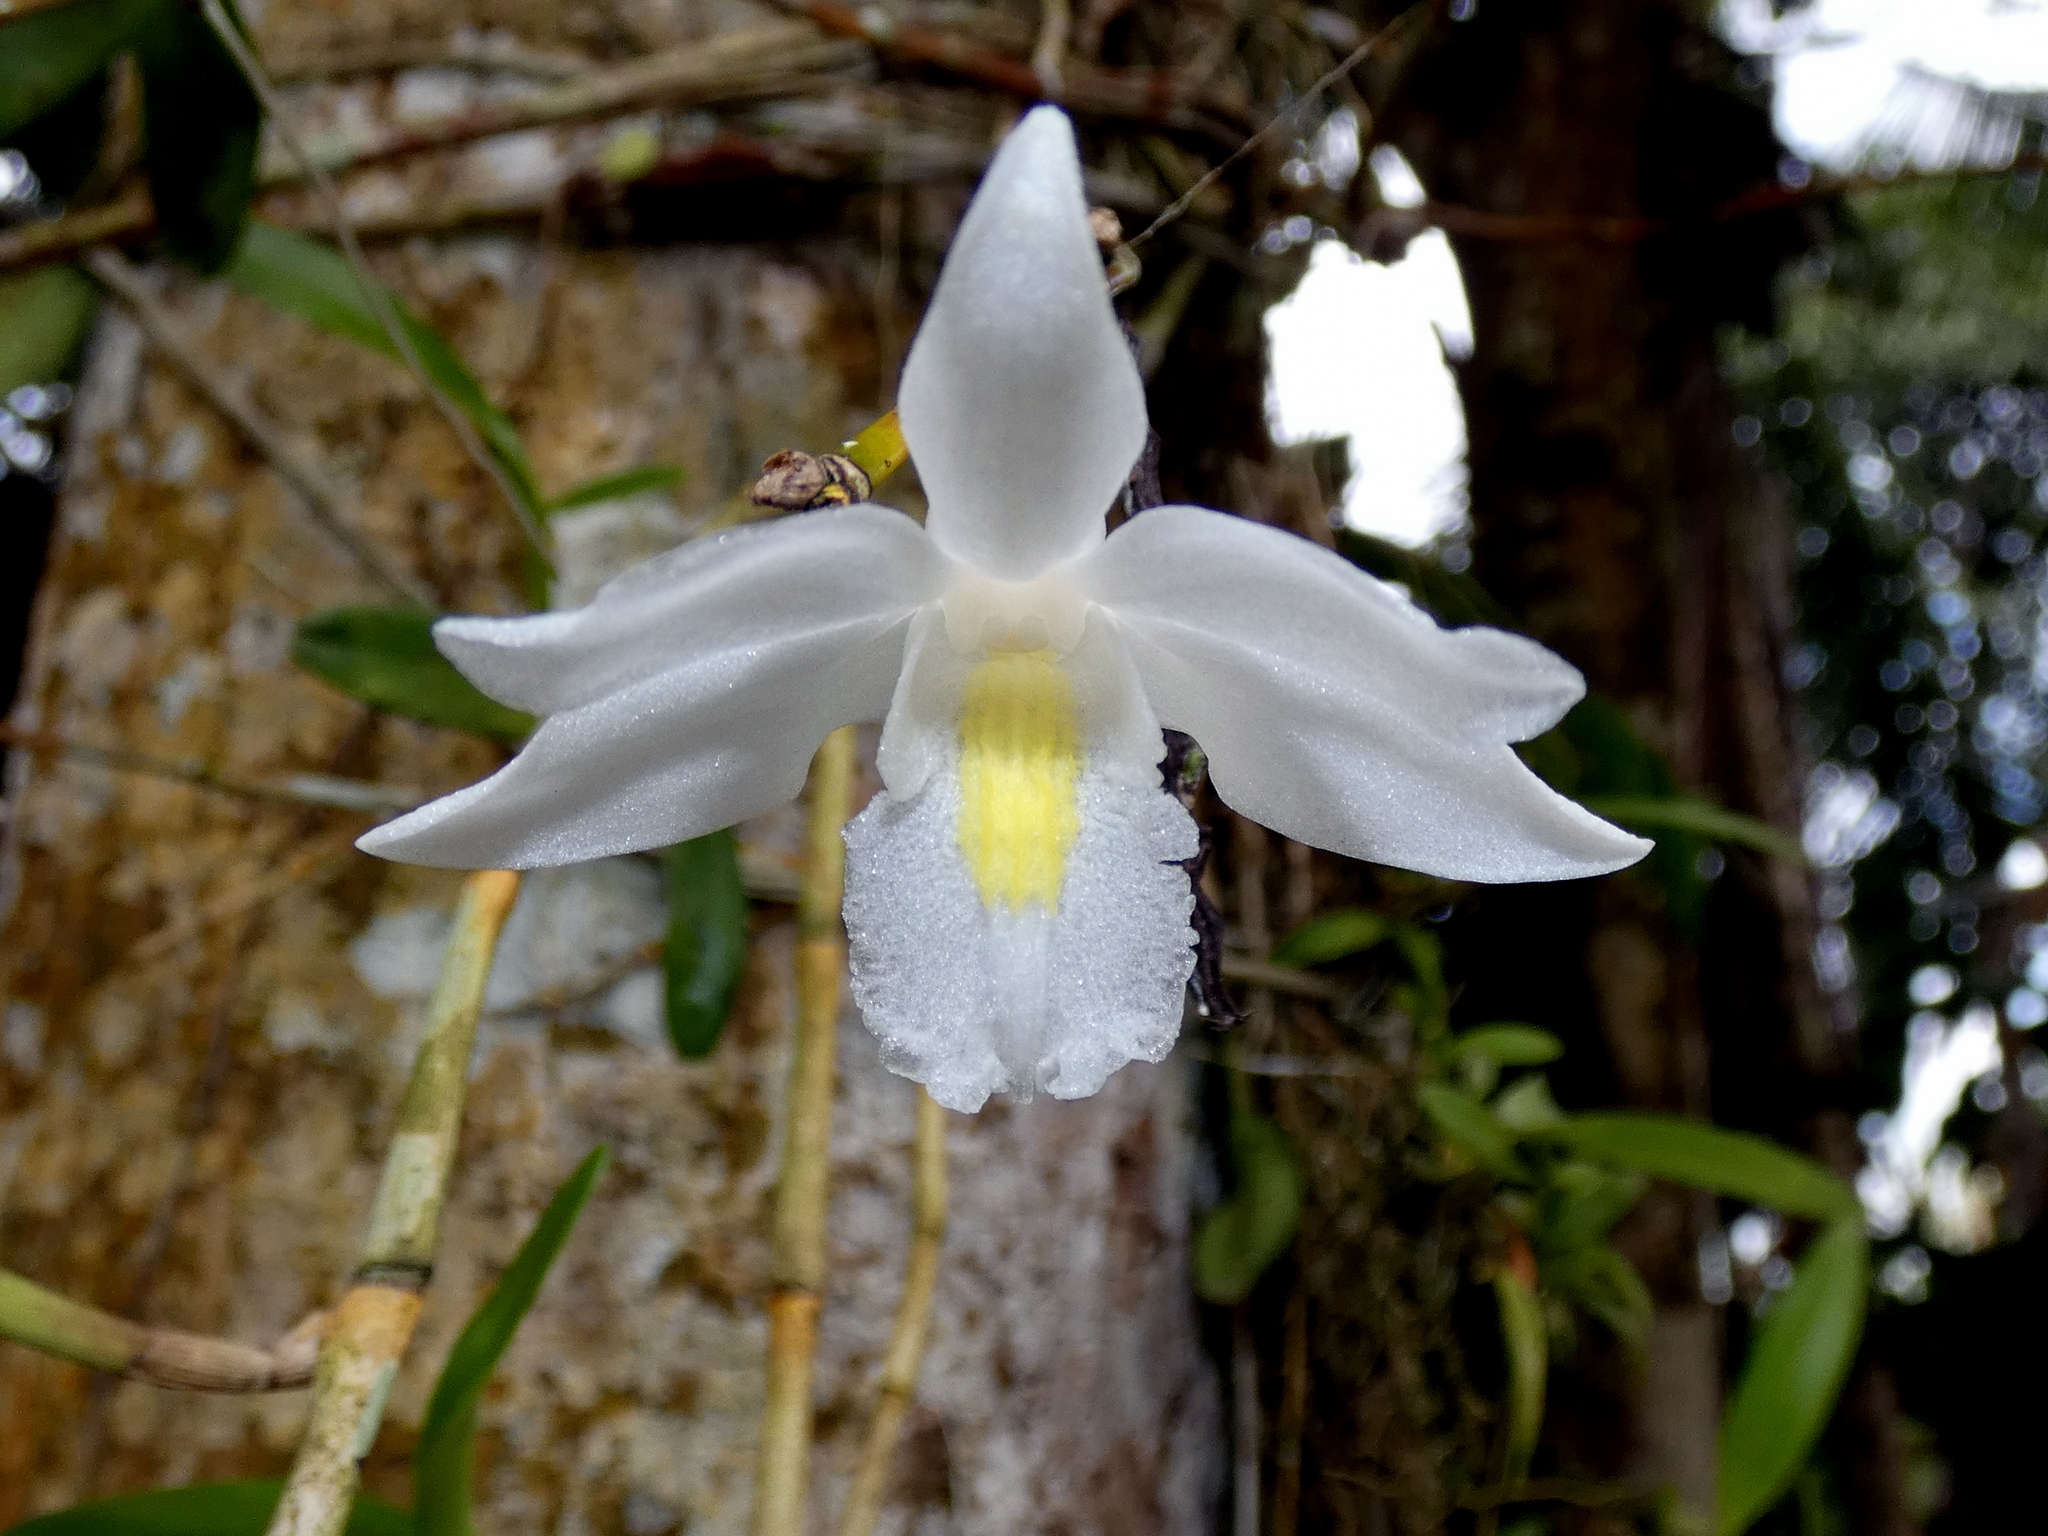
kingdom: Plantae
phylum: Tracheophyta
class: Liliopsida
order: Asparagales
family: Orchidaceae
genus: Dendrobium
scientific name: Dendrobium crumenatum
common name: Orchid
